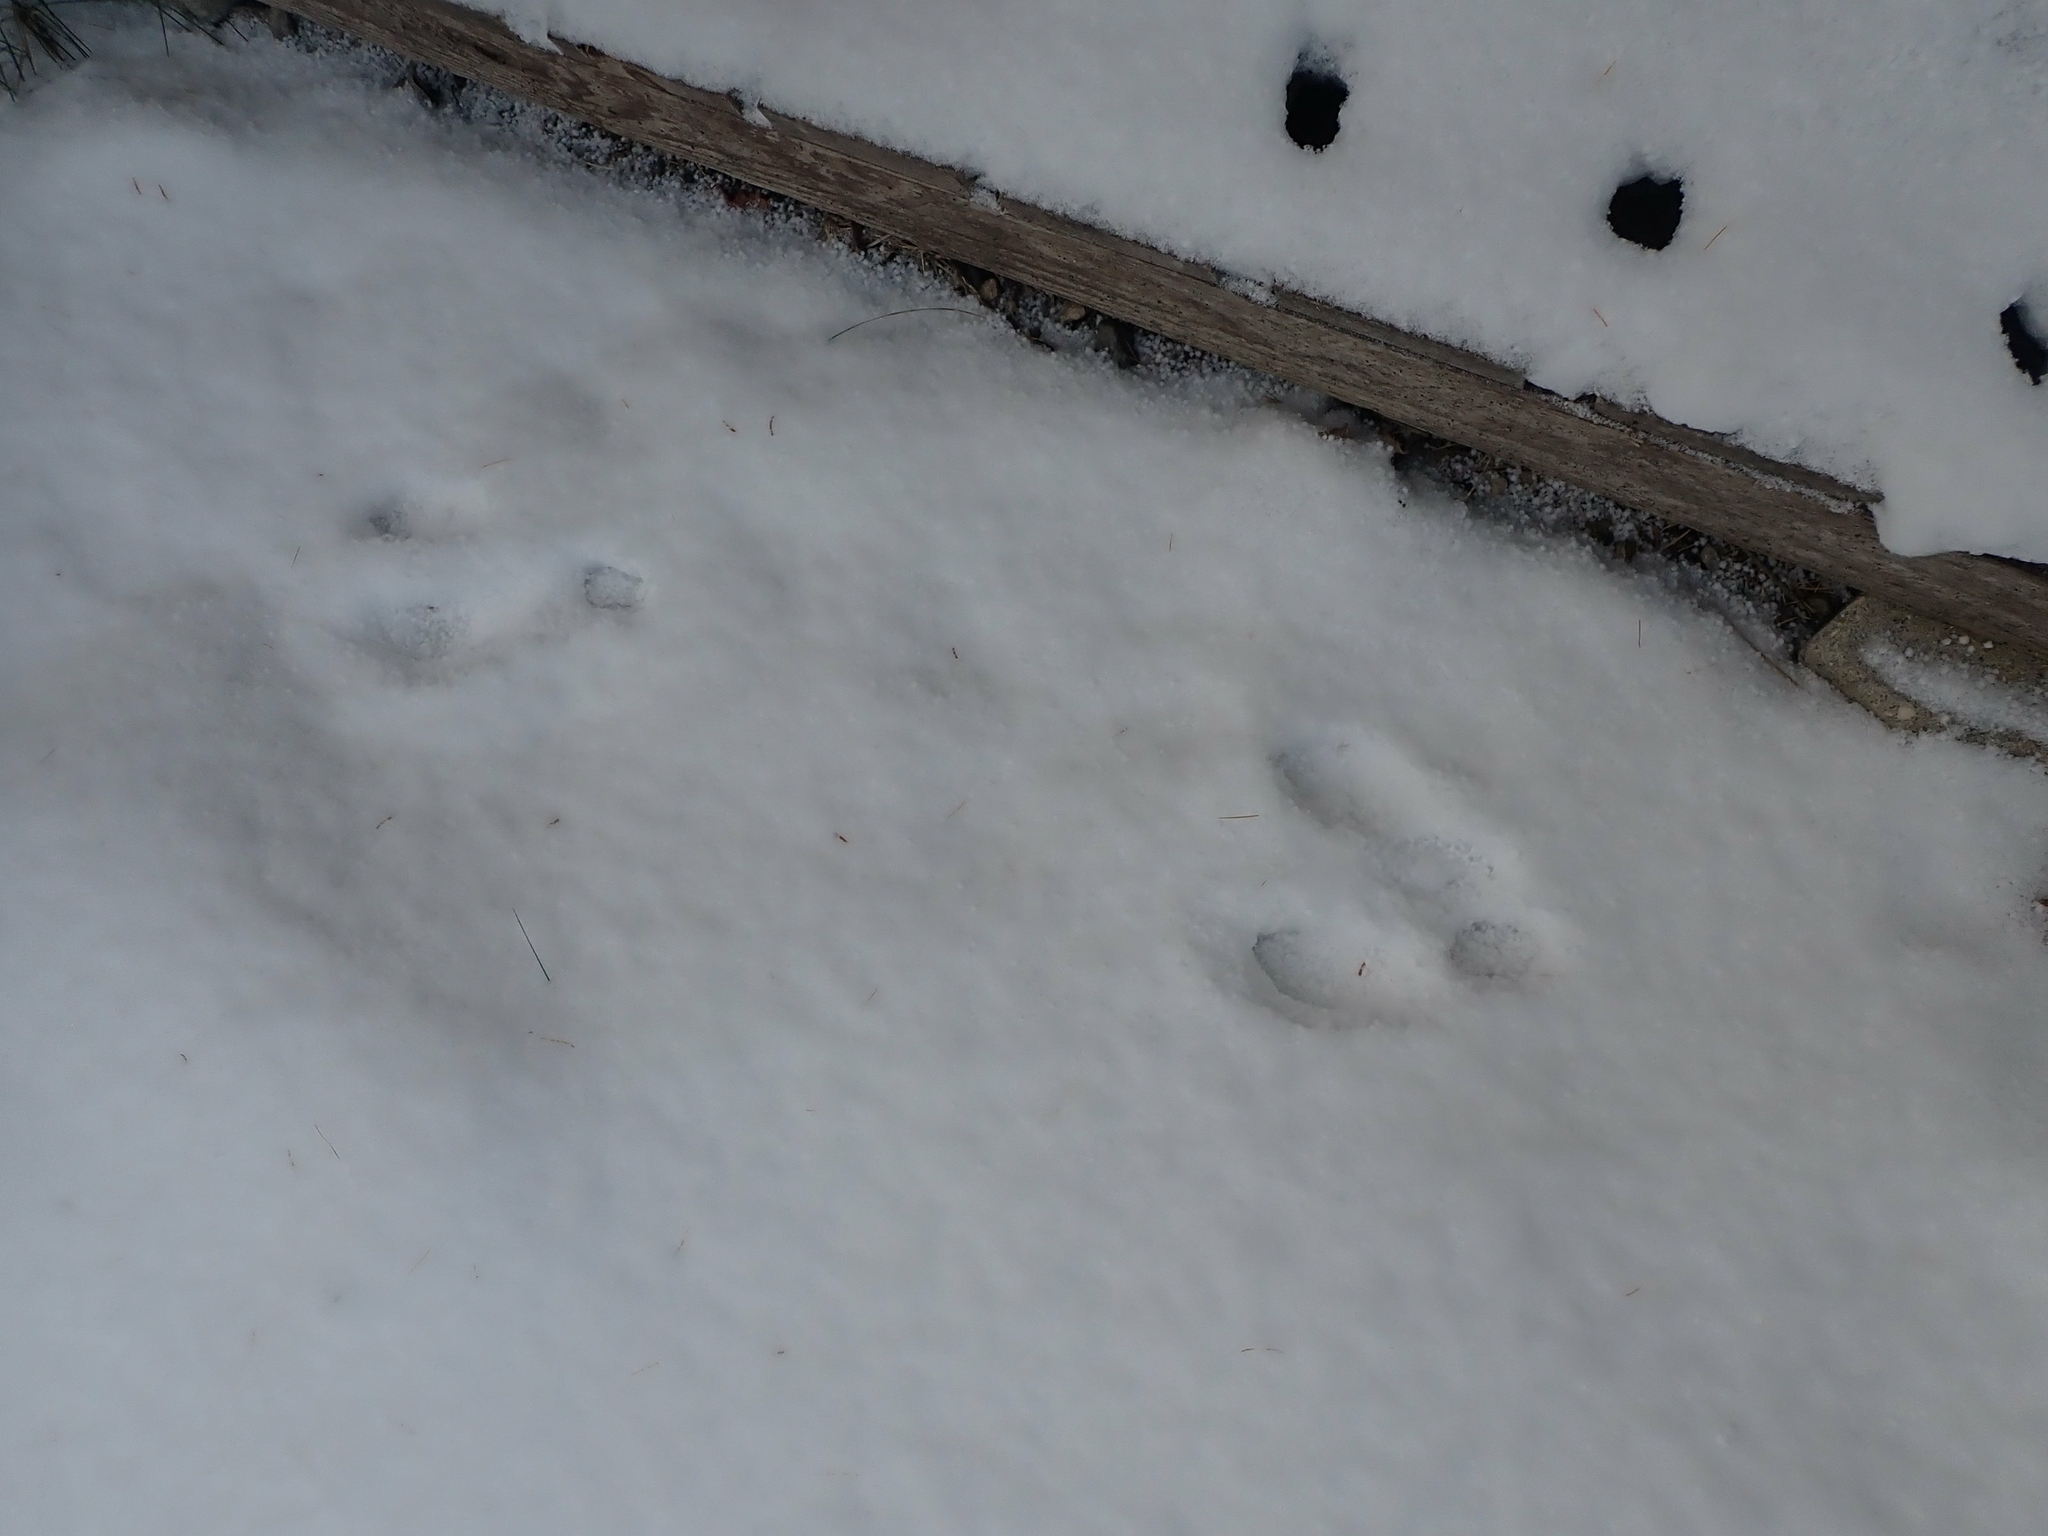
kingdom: Animalia
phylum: Chordata
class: Mammalia
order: Lagomorpha
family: Leporidae
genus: Sylvilagus
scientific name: Sylvilagus floridanus
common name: Eastern cottontail
